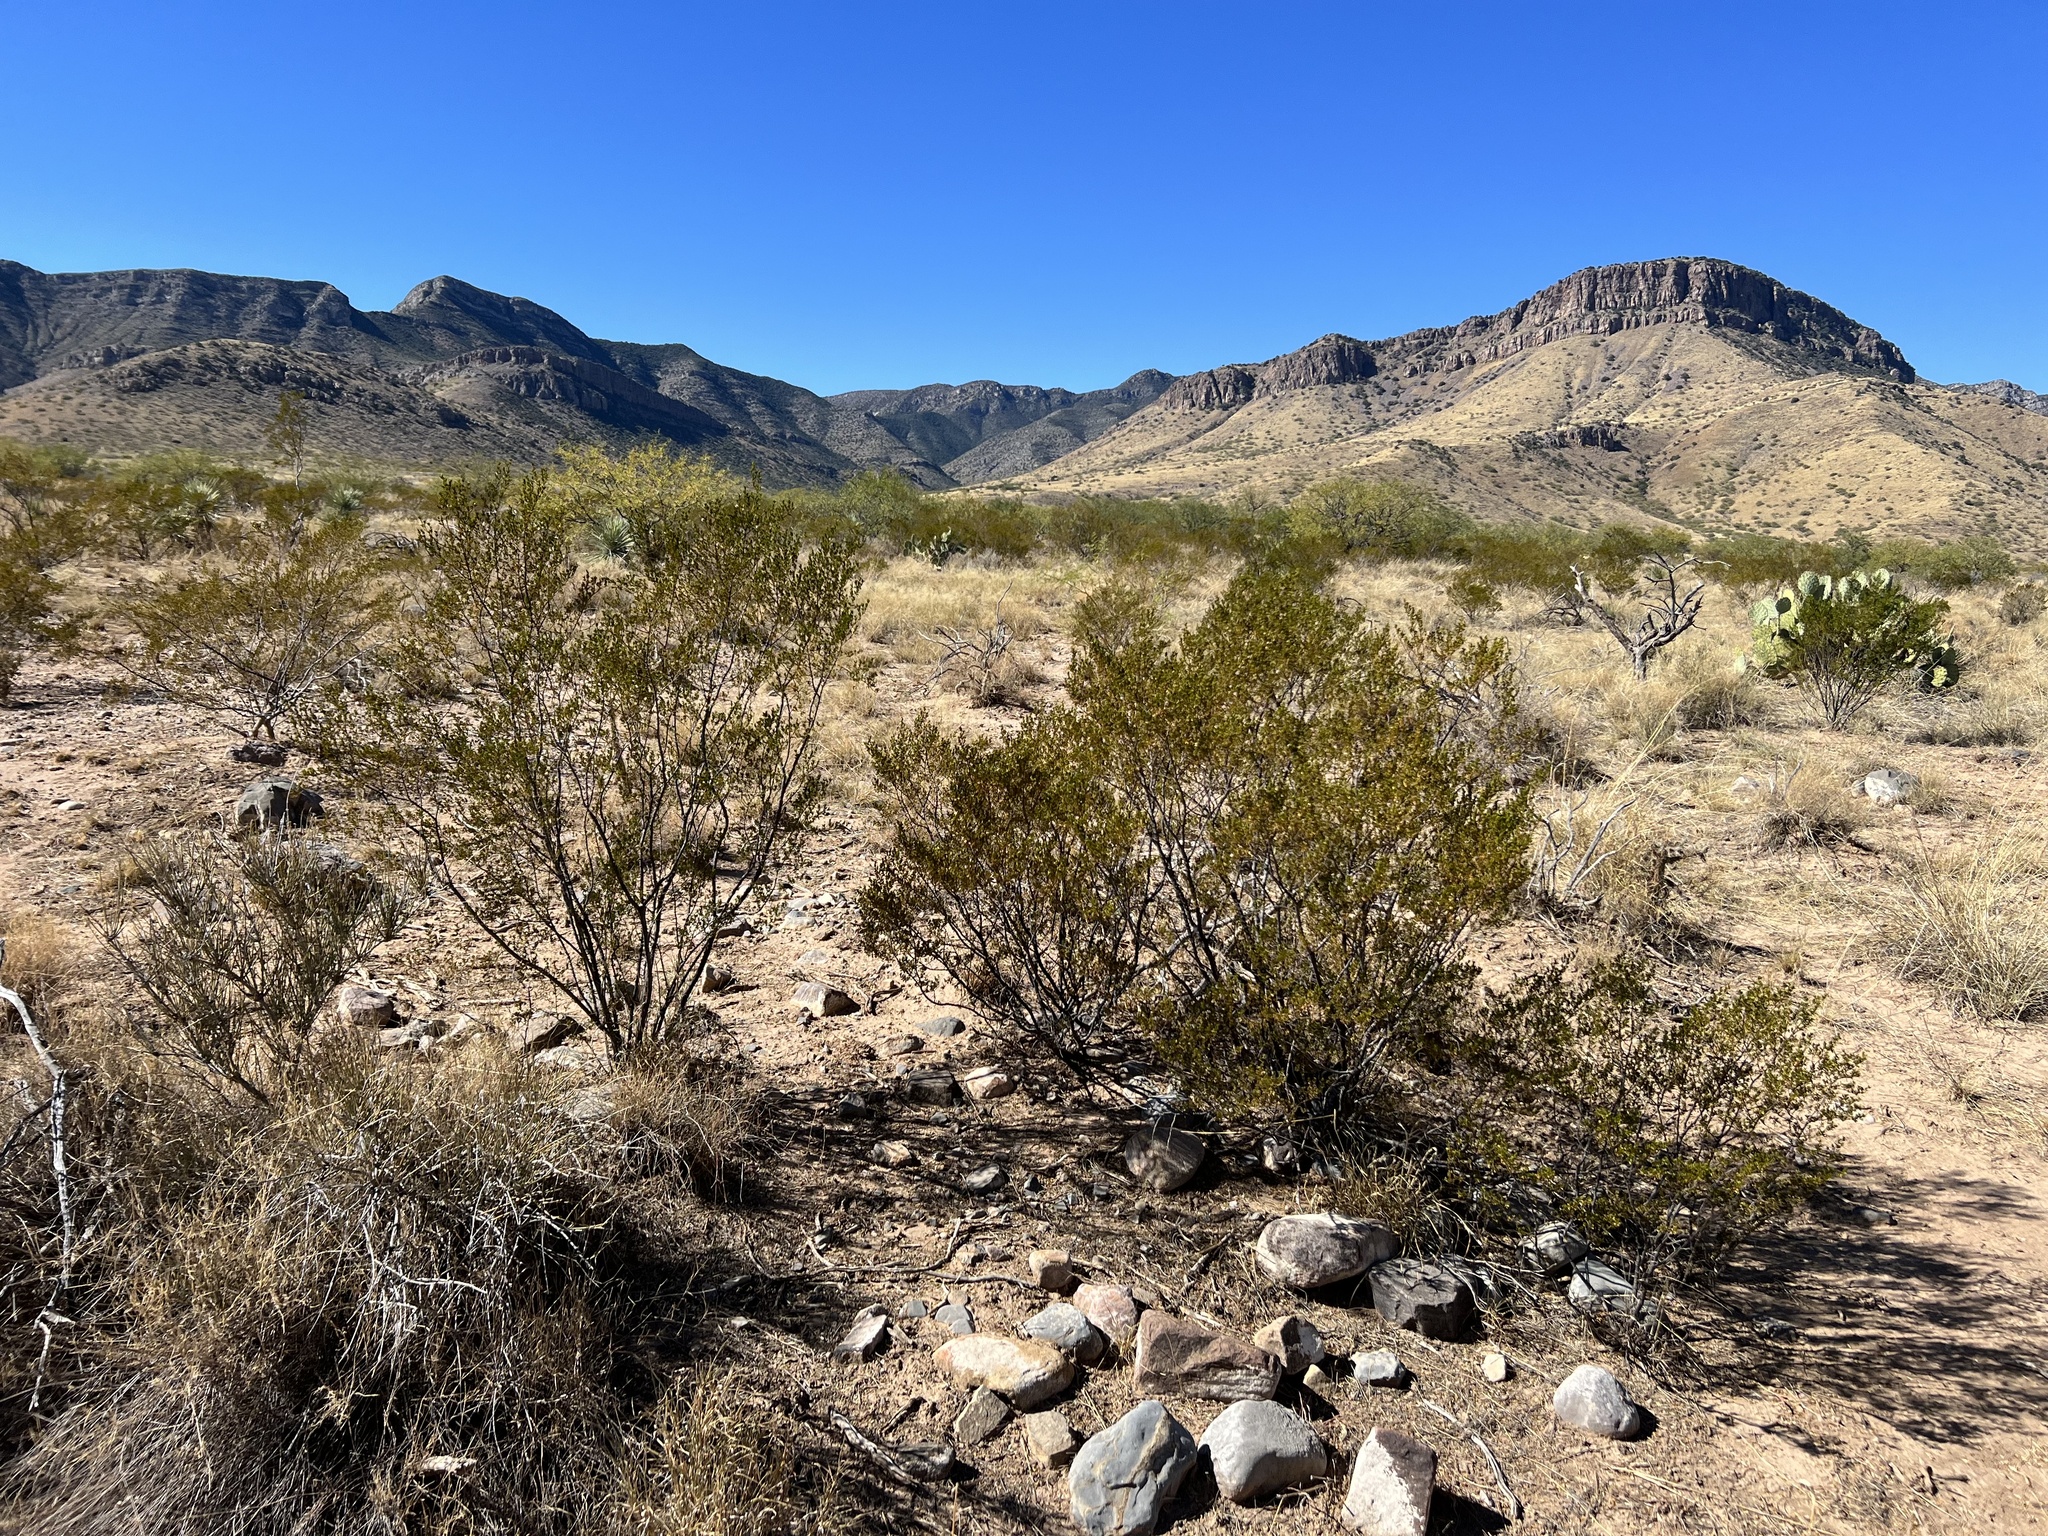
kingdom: Plantae
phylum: Tracheophyta
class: Magnoliopsida
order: Zygophyllales
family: Zygophyllaceae
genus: Larrea
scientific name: Larrea tridentata
